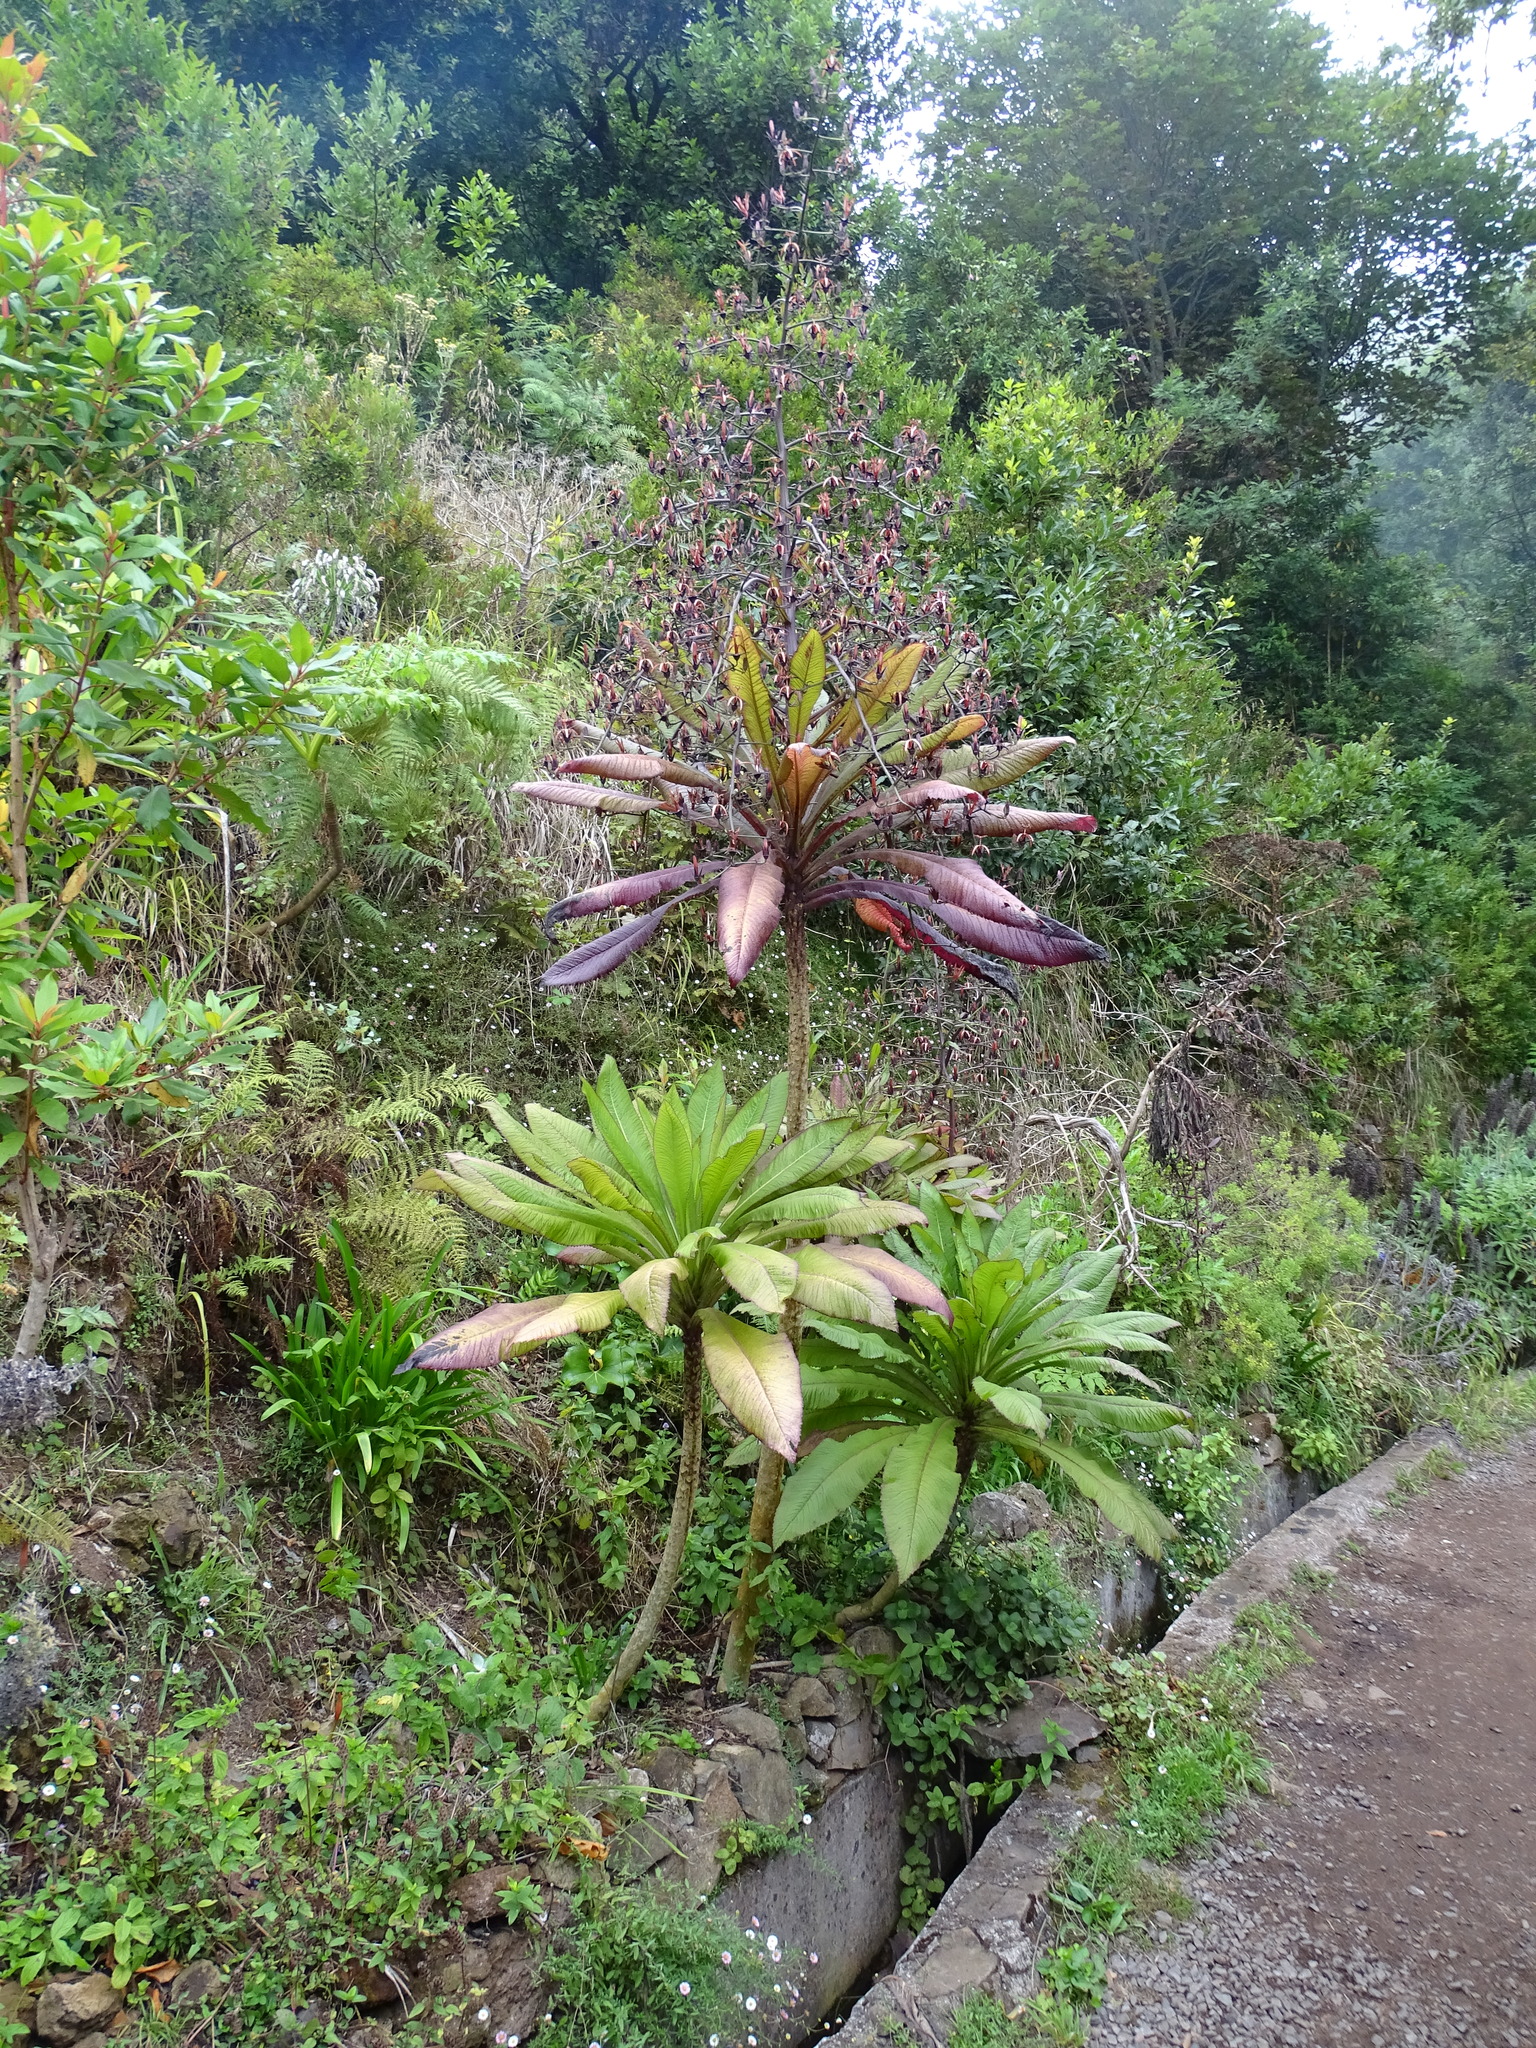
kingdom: Plantae
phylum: Tracheophyta
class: Magnoliopsida
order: Asterales
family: Campanulaceae
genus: Musschia
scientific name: Musschia wollastonii
